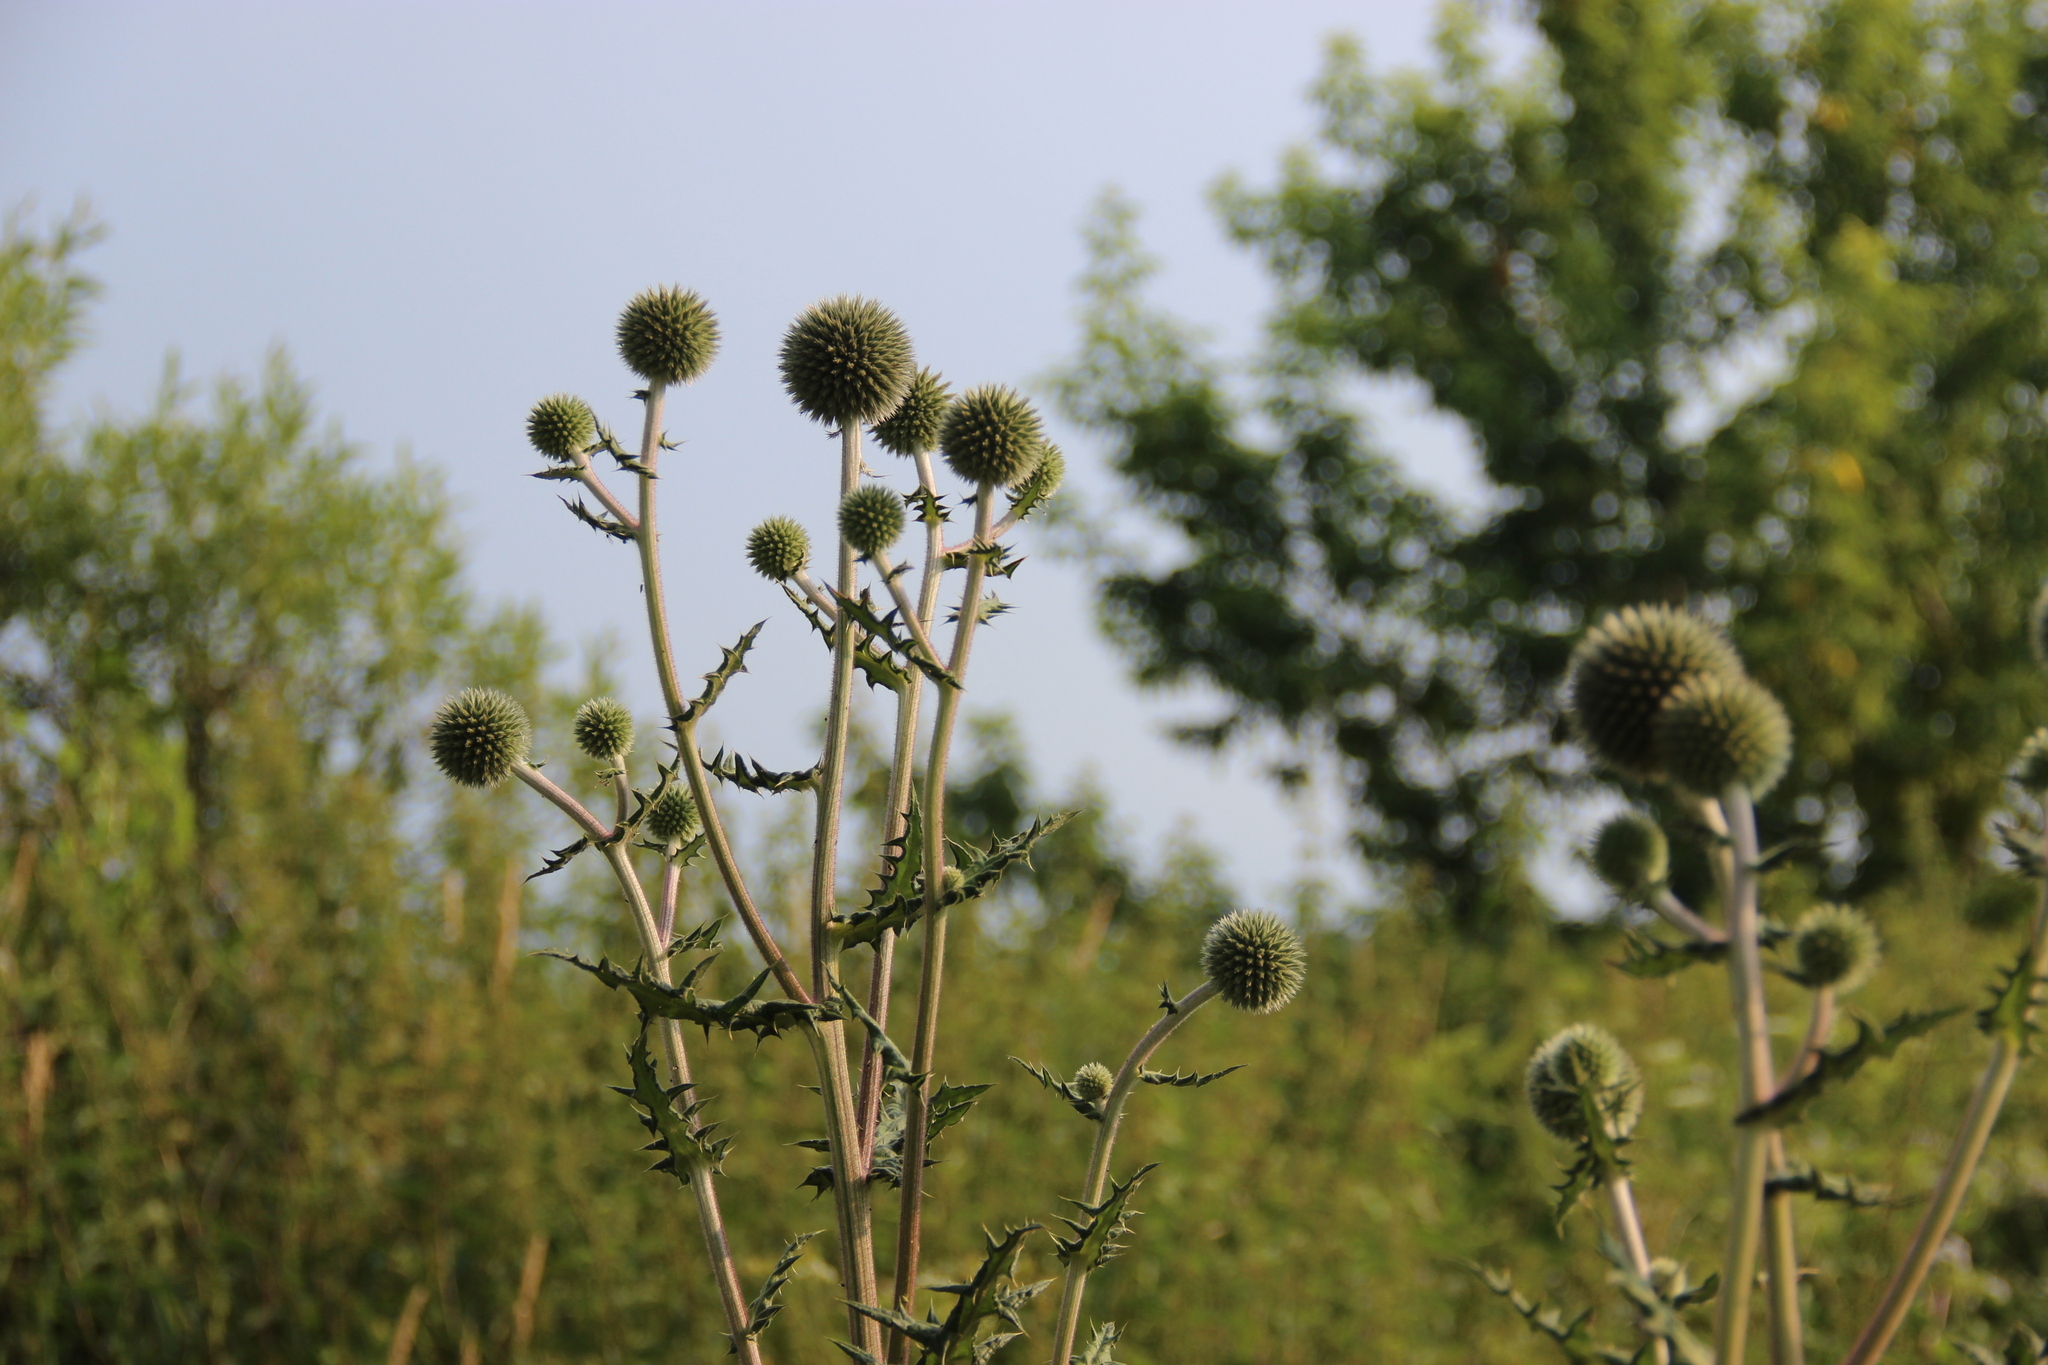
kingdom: Plantae
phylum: Tracheophyta
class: Magnoliopsida
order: Asterales
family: Asteraceae
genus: Echinops
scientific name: Echinops sphaerocephalus
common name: Glandular globe-thistle
